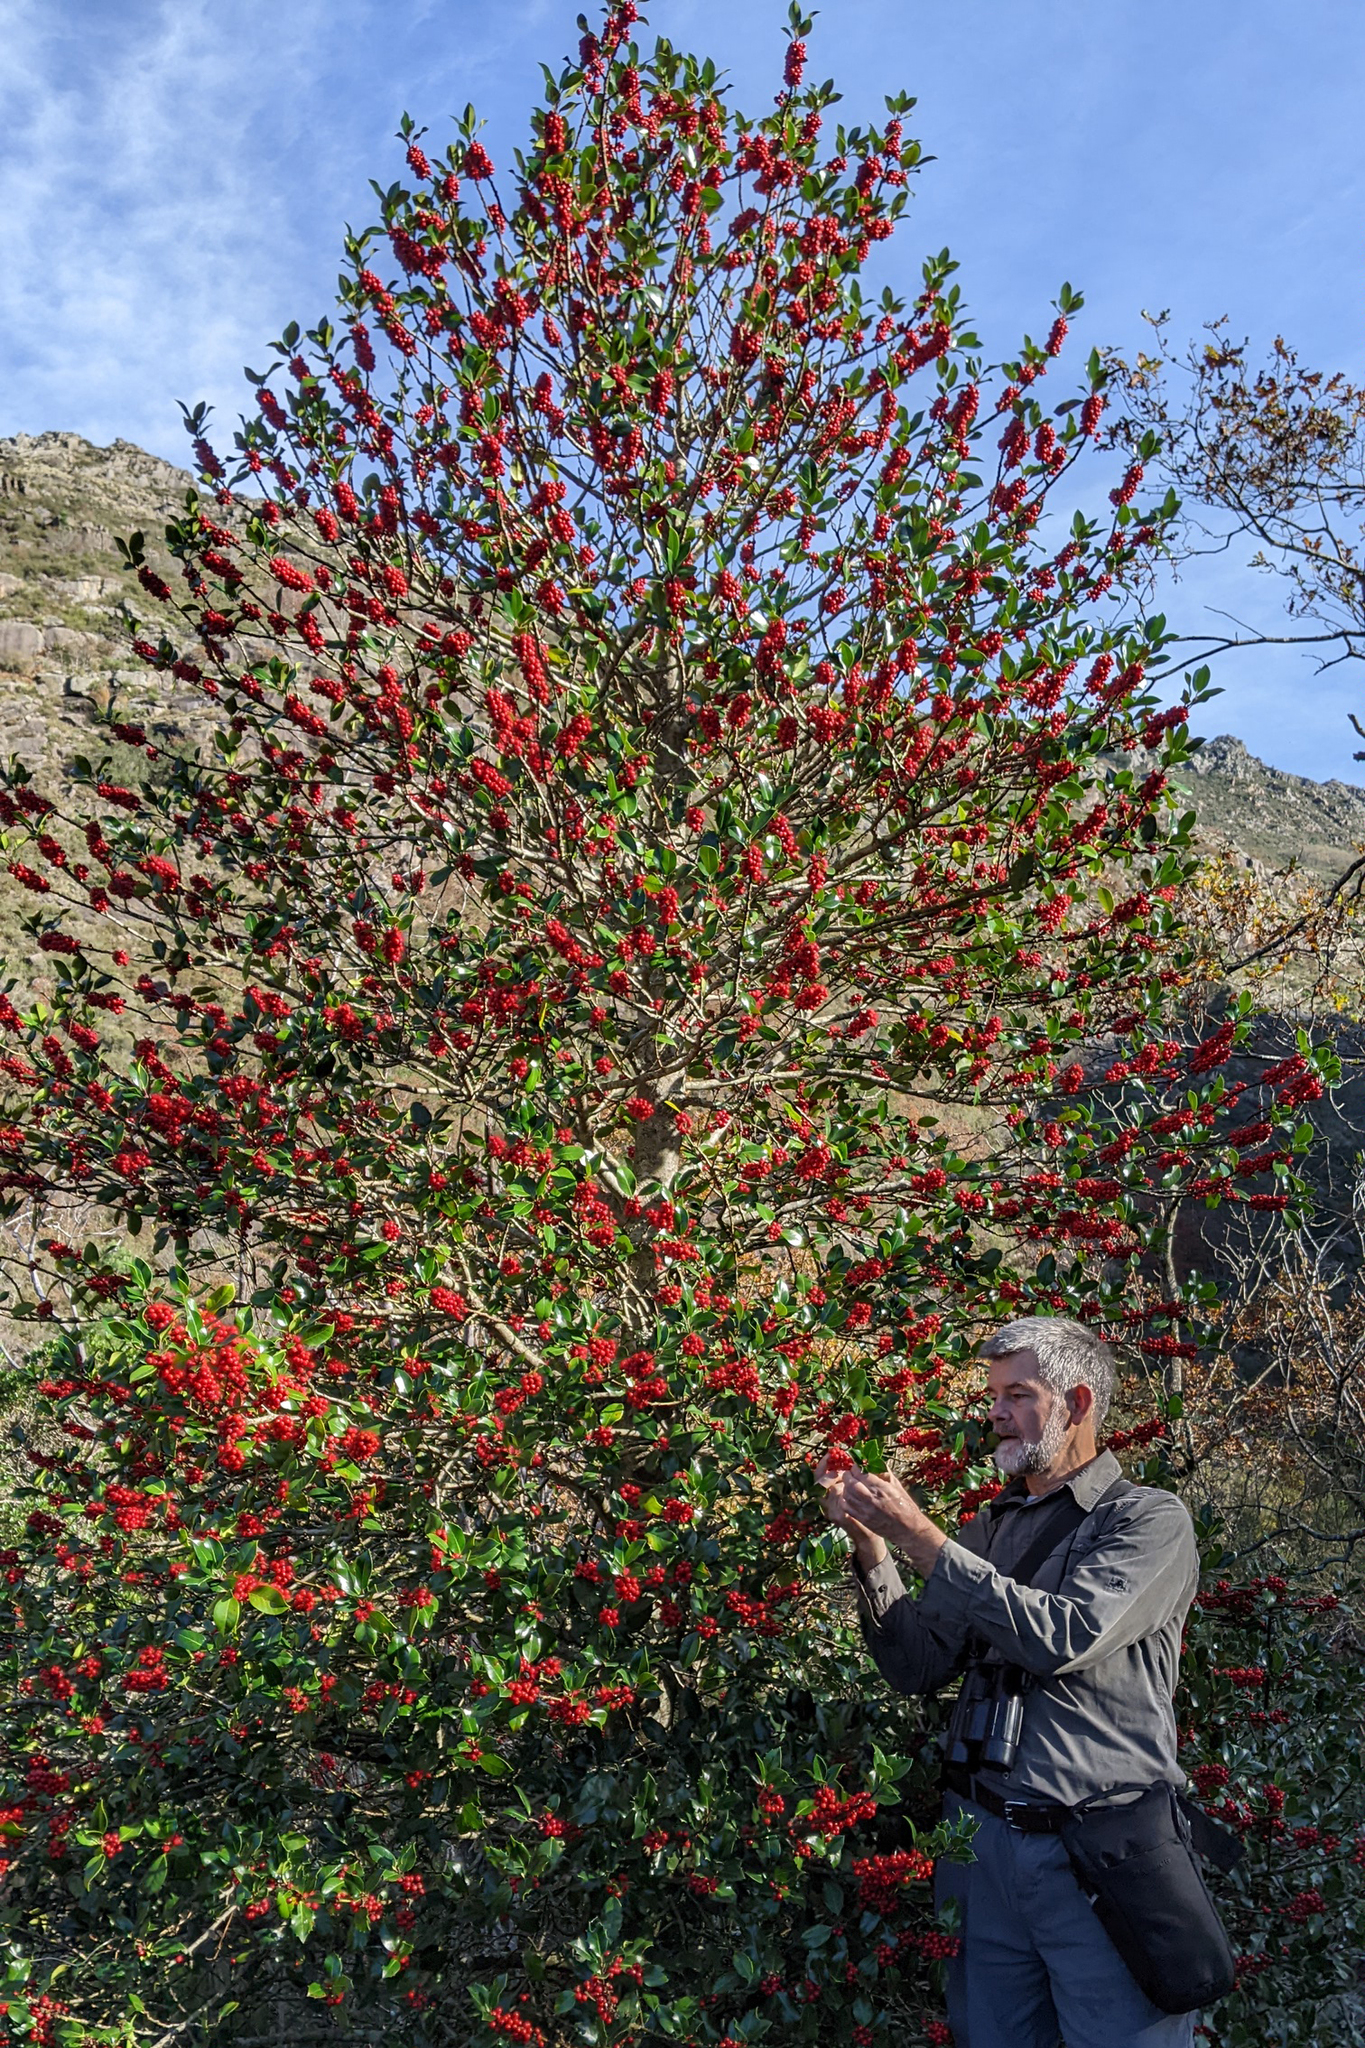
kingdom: Plantae
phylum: Tracheophyta
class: Magnoliopsida
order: Aquifoliales
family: Aquifoliaceae
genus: Ilex
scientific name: Ilex aquifolium
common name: English holly
